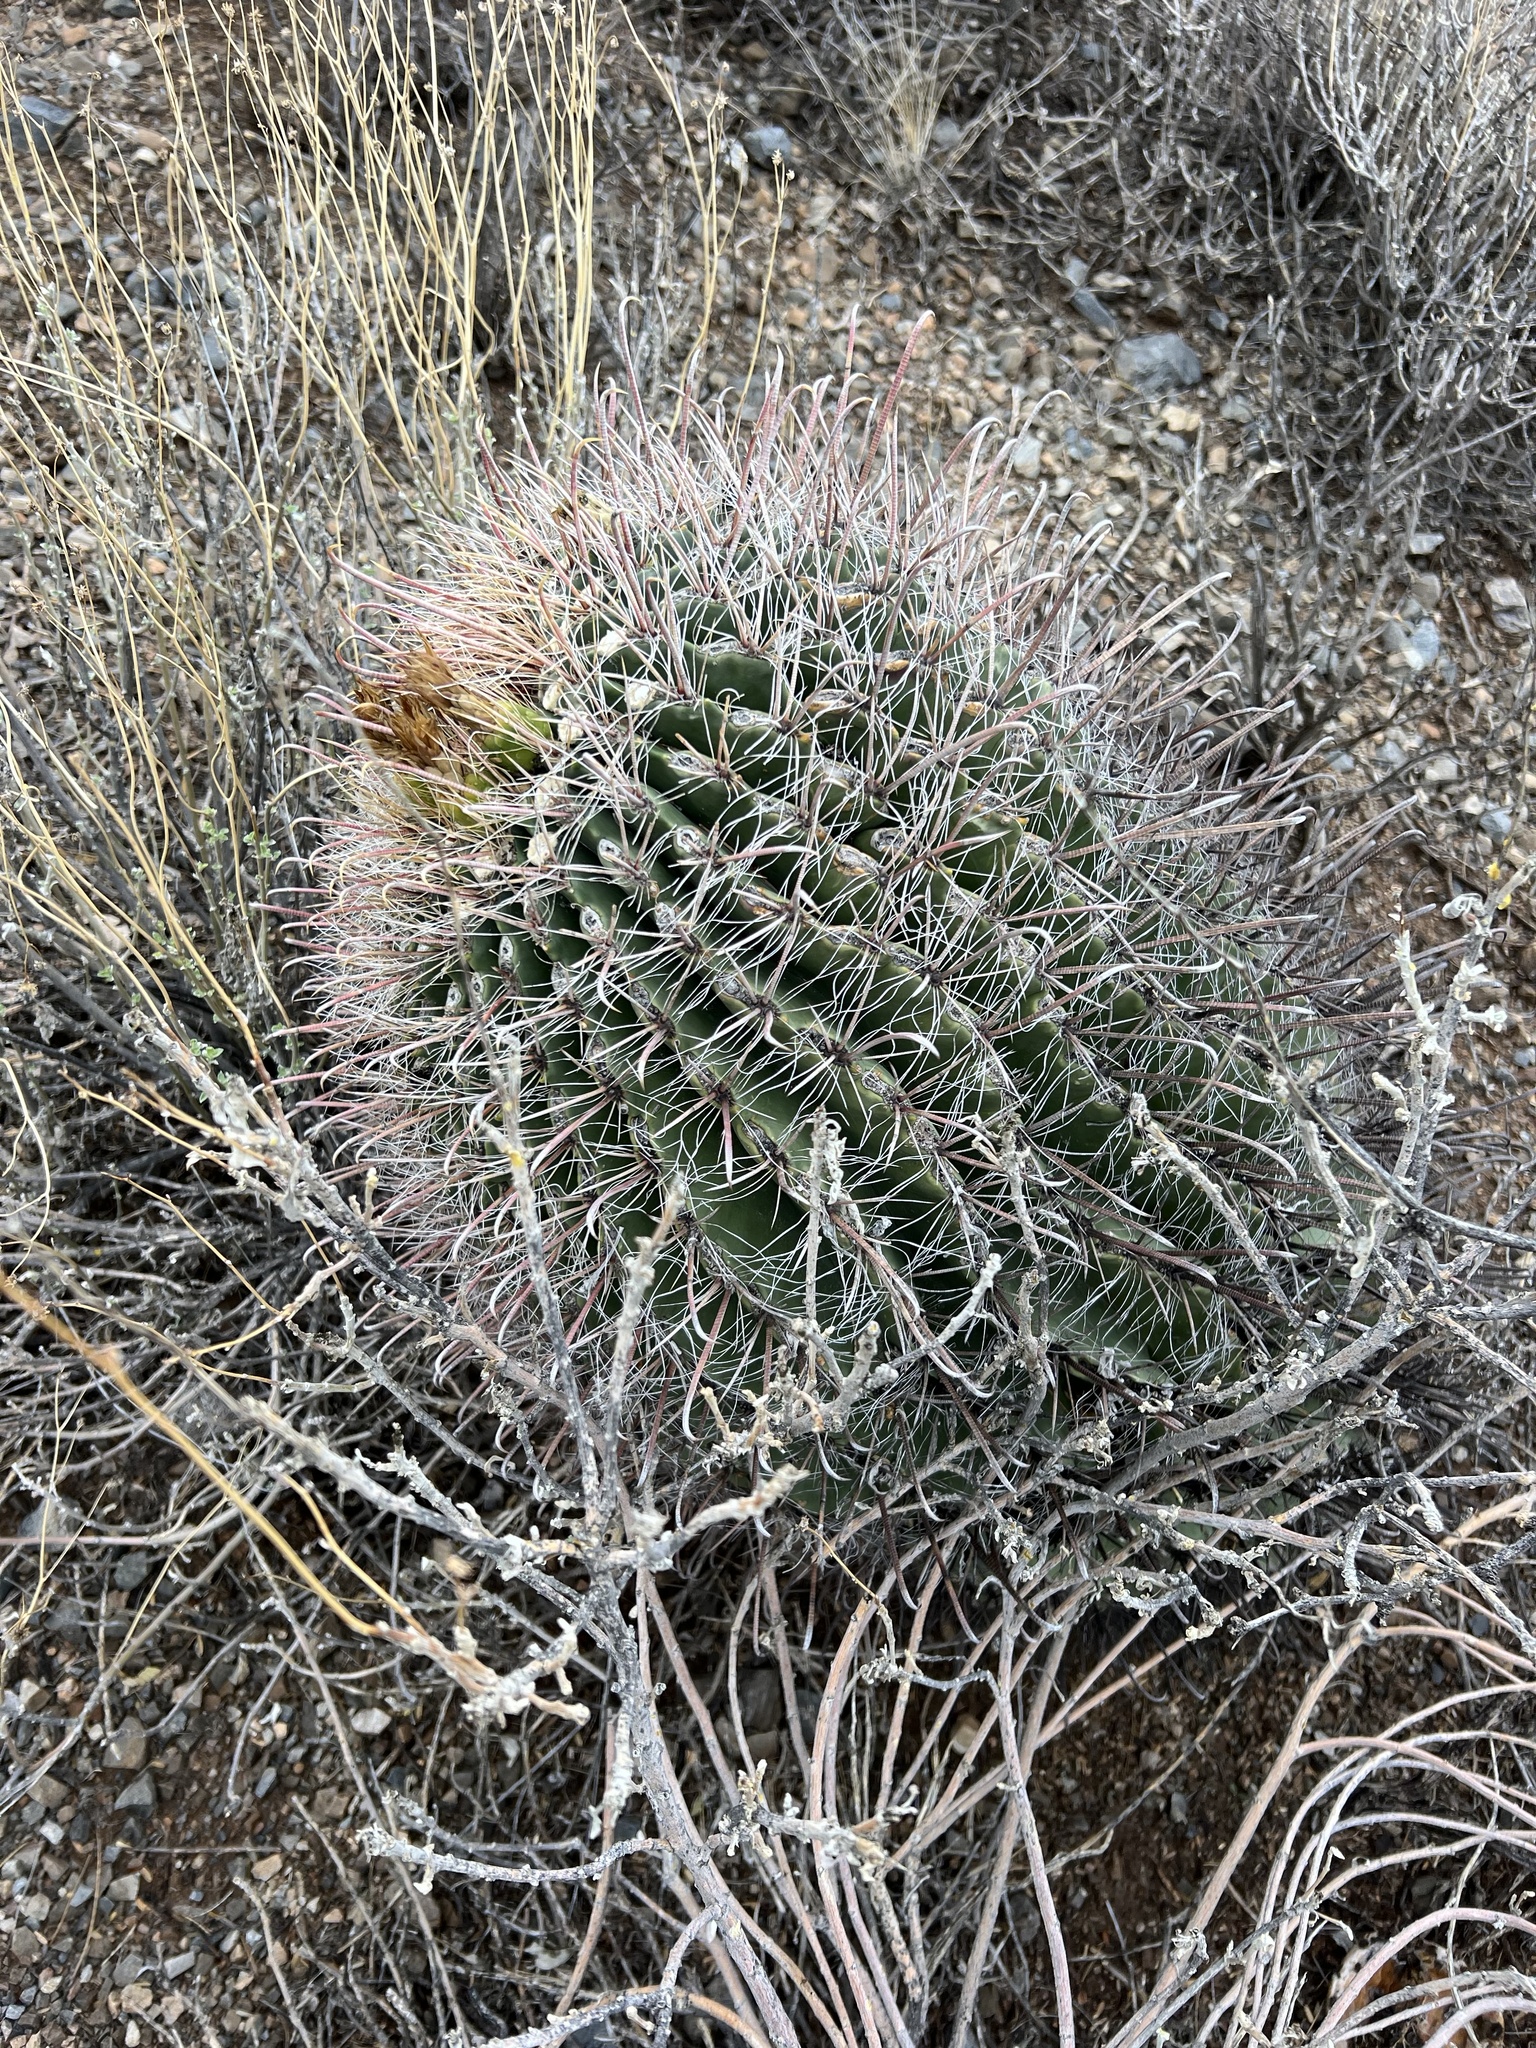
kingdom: Plantae
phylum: Tracheophyta
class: Magnoliopsida
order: Caryophyllales
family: Cactaceae
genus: Ferocactus
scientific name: Ferocactus wislizeni
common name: Candy barrel cactus
